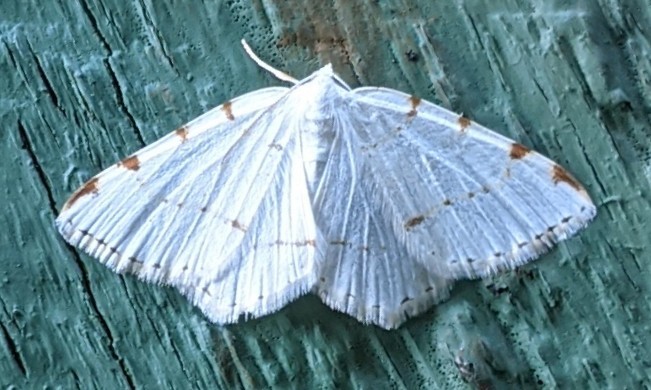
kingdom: Animalia
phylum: Arthropoda
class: Insecta
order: Lepidoptera
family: Geometridae
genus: Macaria
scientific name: Macaria pustularia
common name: Lesser maple spanworm moth
